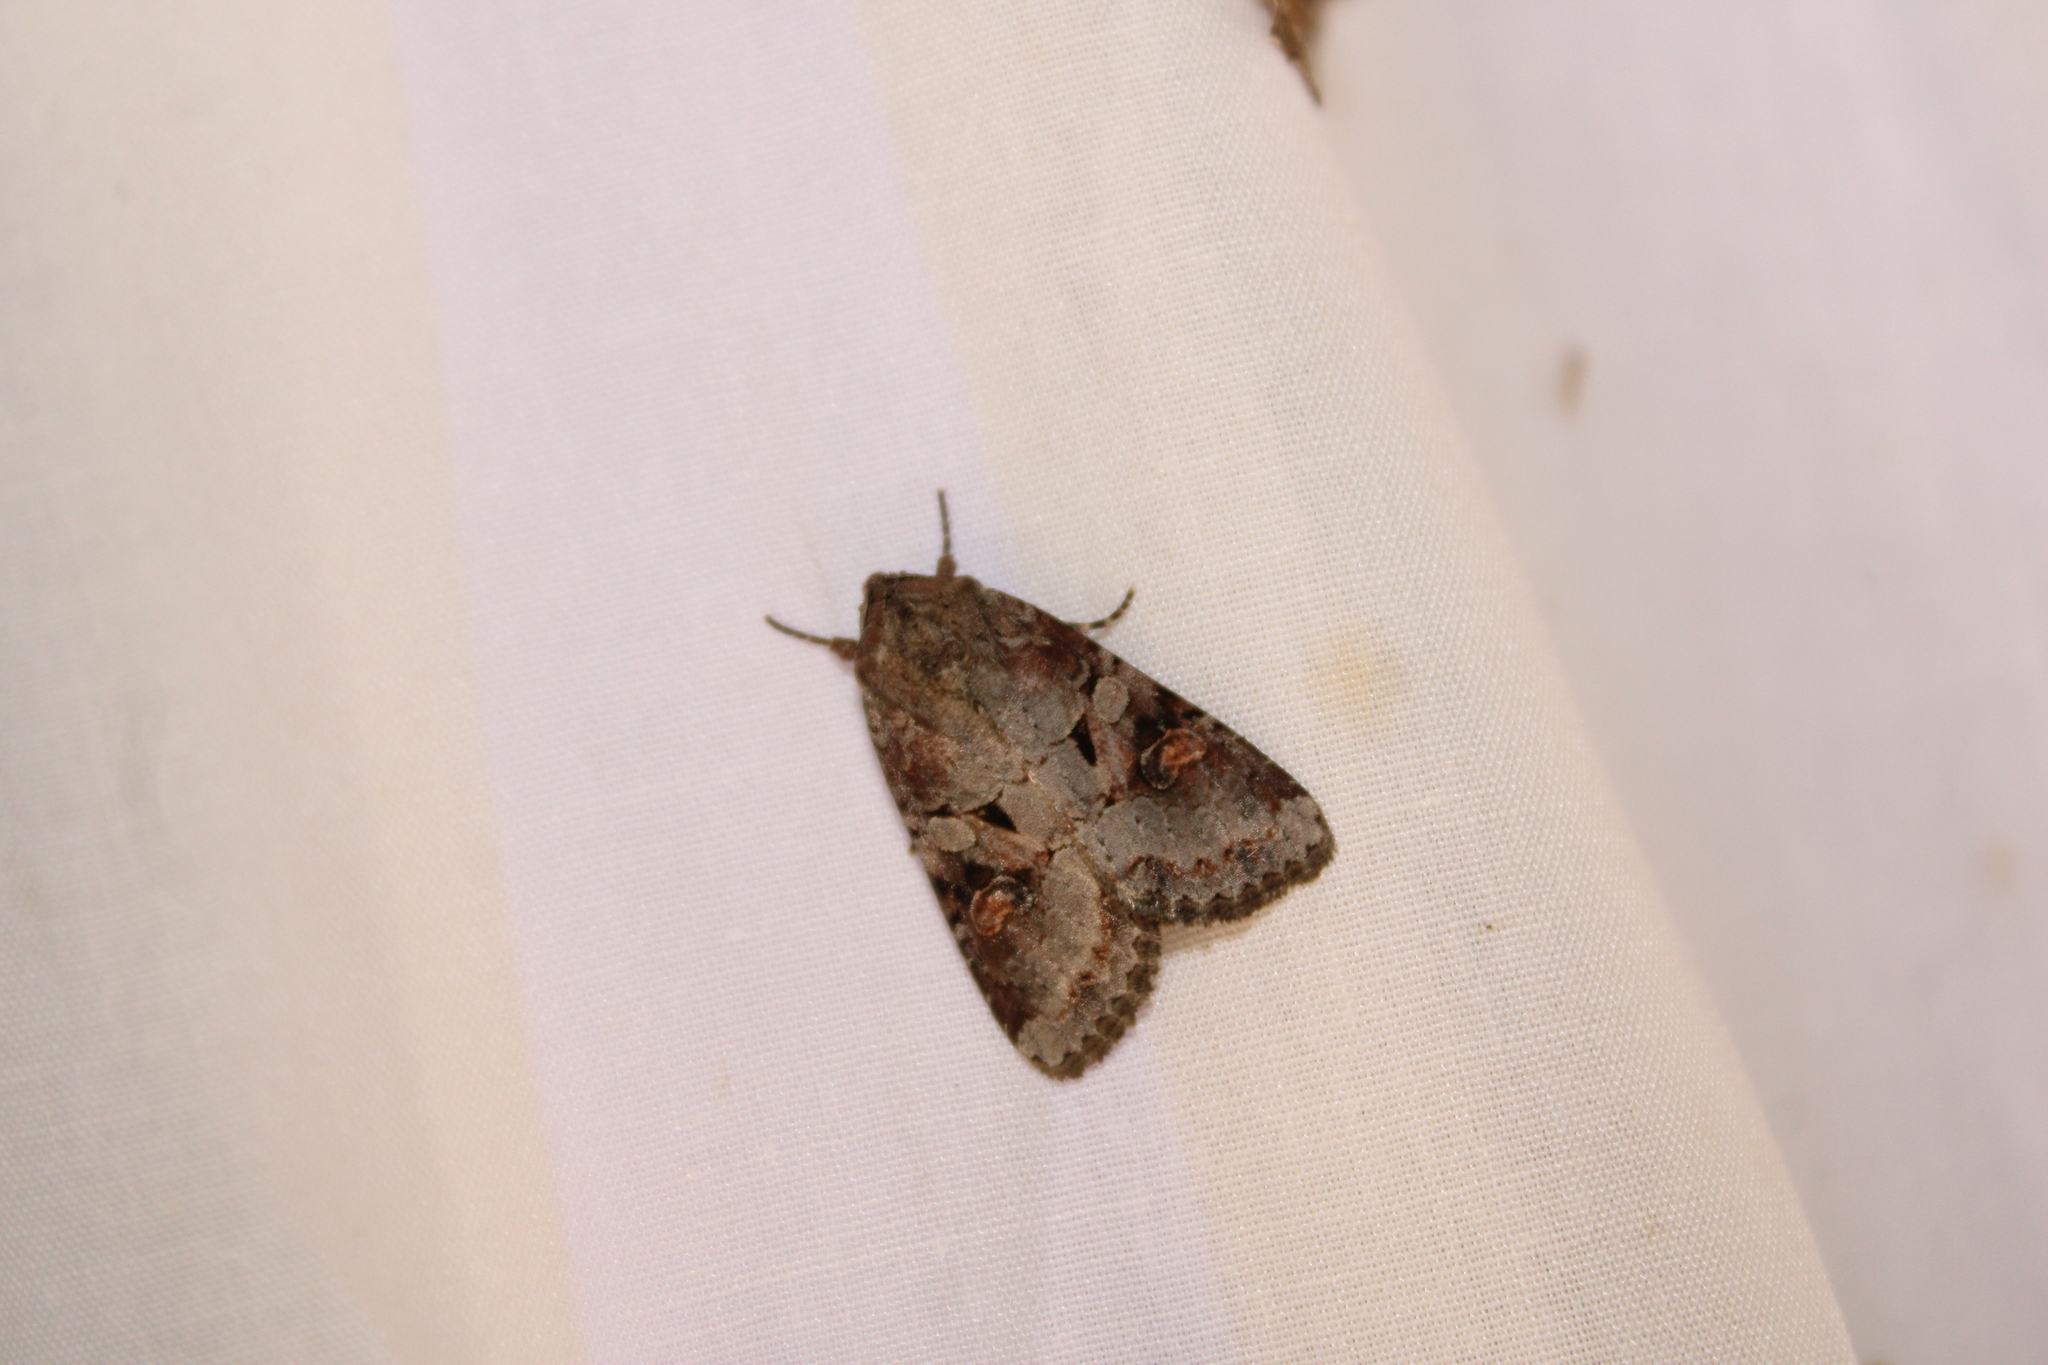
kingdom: Animalia
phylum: Arthropoda
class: Insecta
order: Lepidoptera
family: Noctuidae
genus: Trichordestra
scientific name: Trichordestra legitima
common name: Striped garden caterpillar
